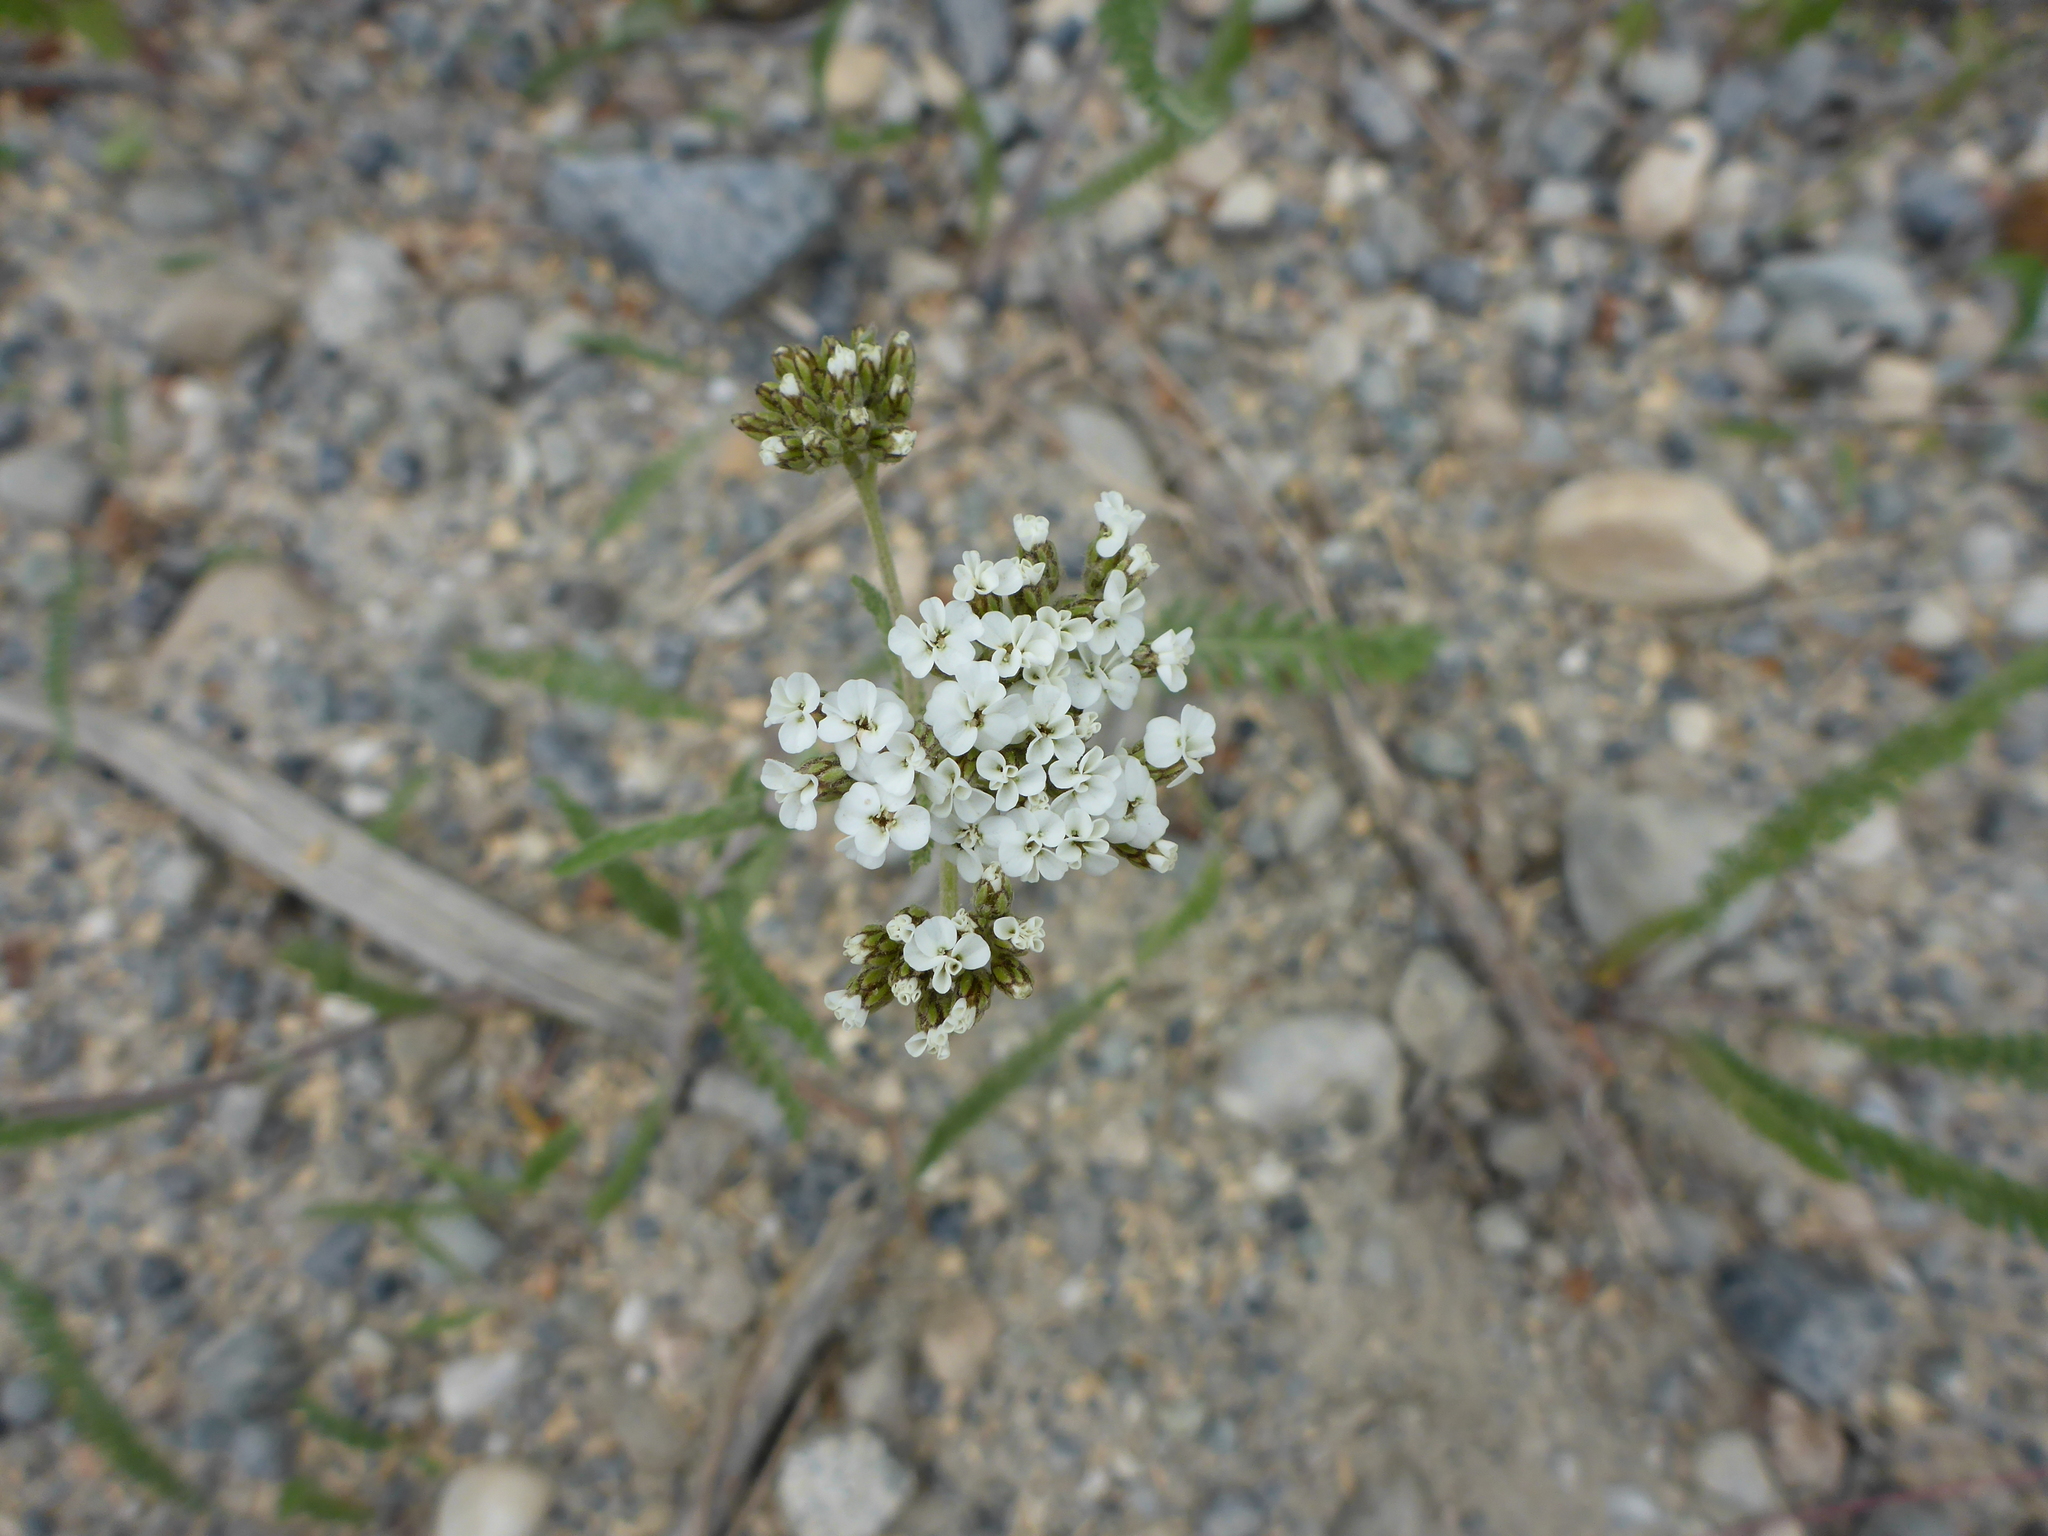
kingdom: Plantae
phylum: Tracheophyta
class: Magnoliopsida
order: Asterales
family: Asteraceae
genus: Achillea
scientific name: Achillea millefolium
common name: Yarrow
